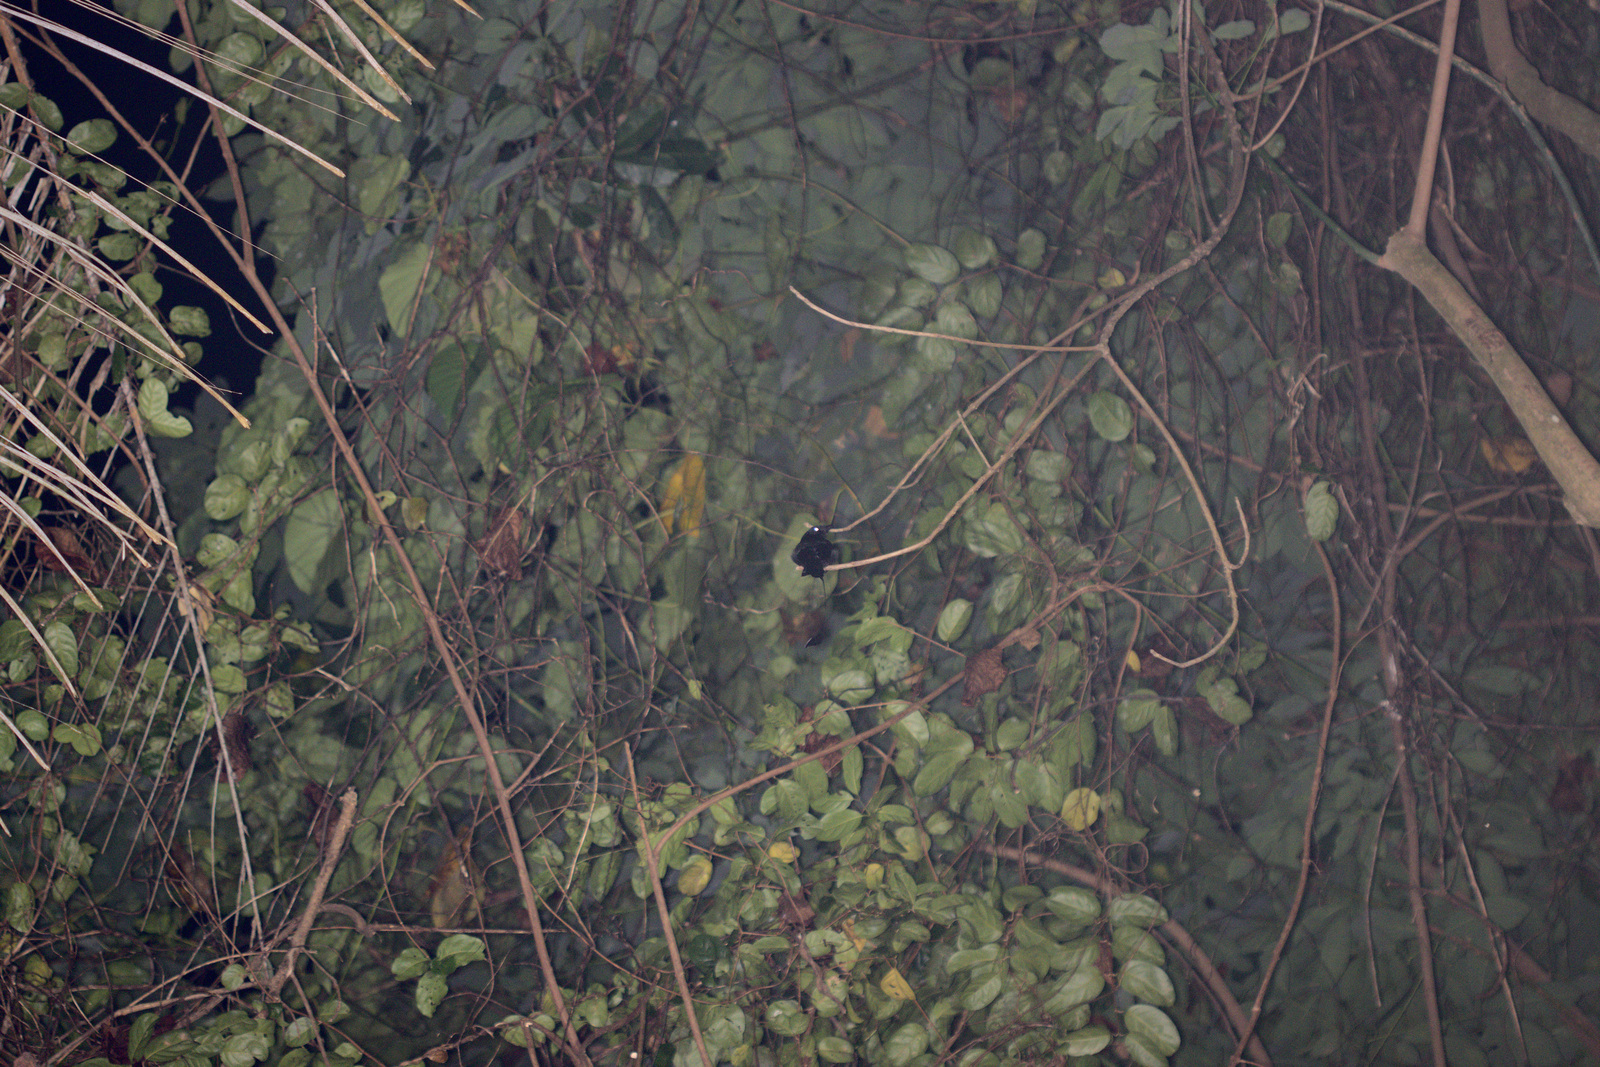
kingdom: Animalia
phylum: Chordata
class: Aves
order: Passeriformes
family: Dicruridae
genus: Dicrurus
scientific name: Dicrurus paradiseus
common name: Greater racket-tailed drongo
